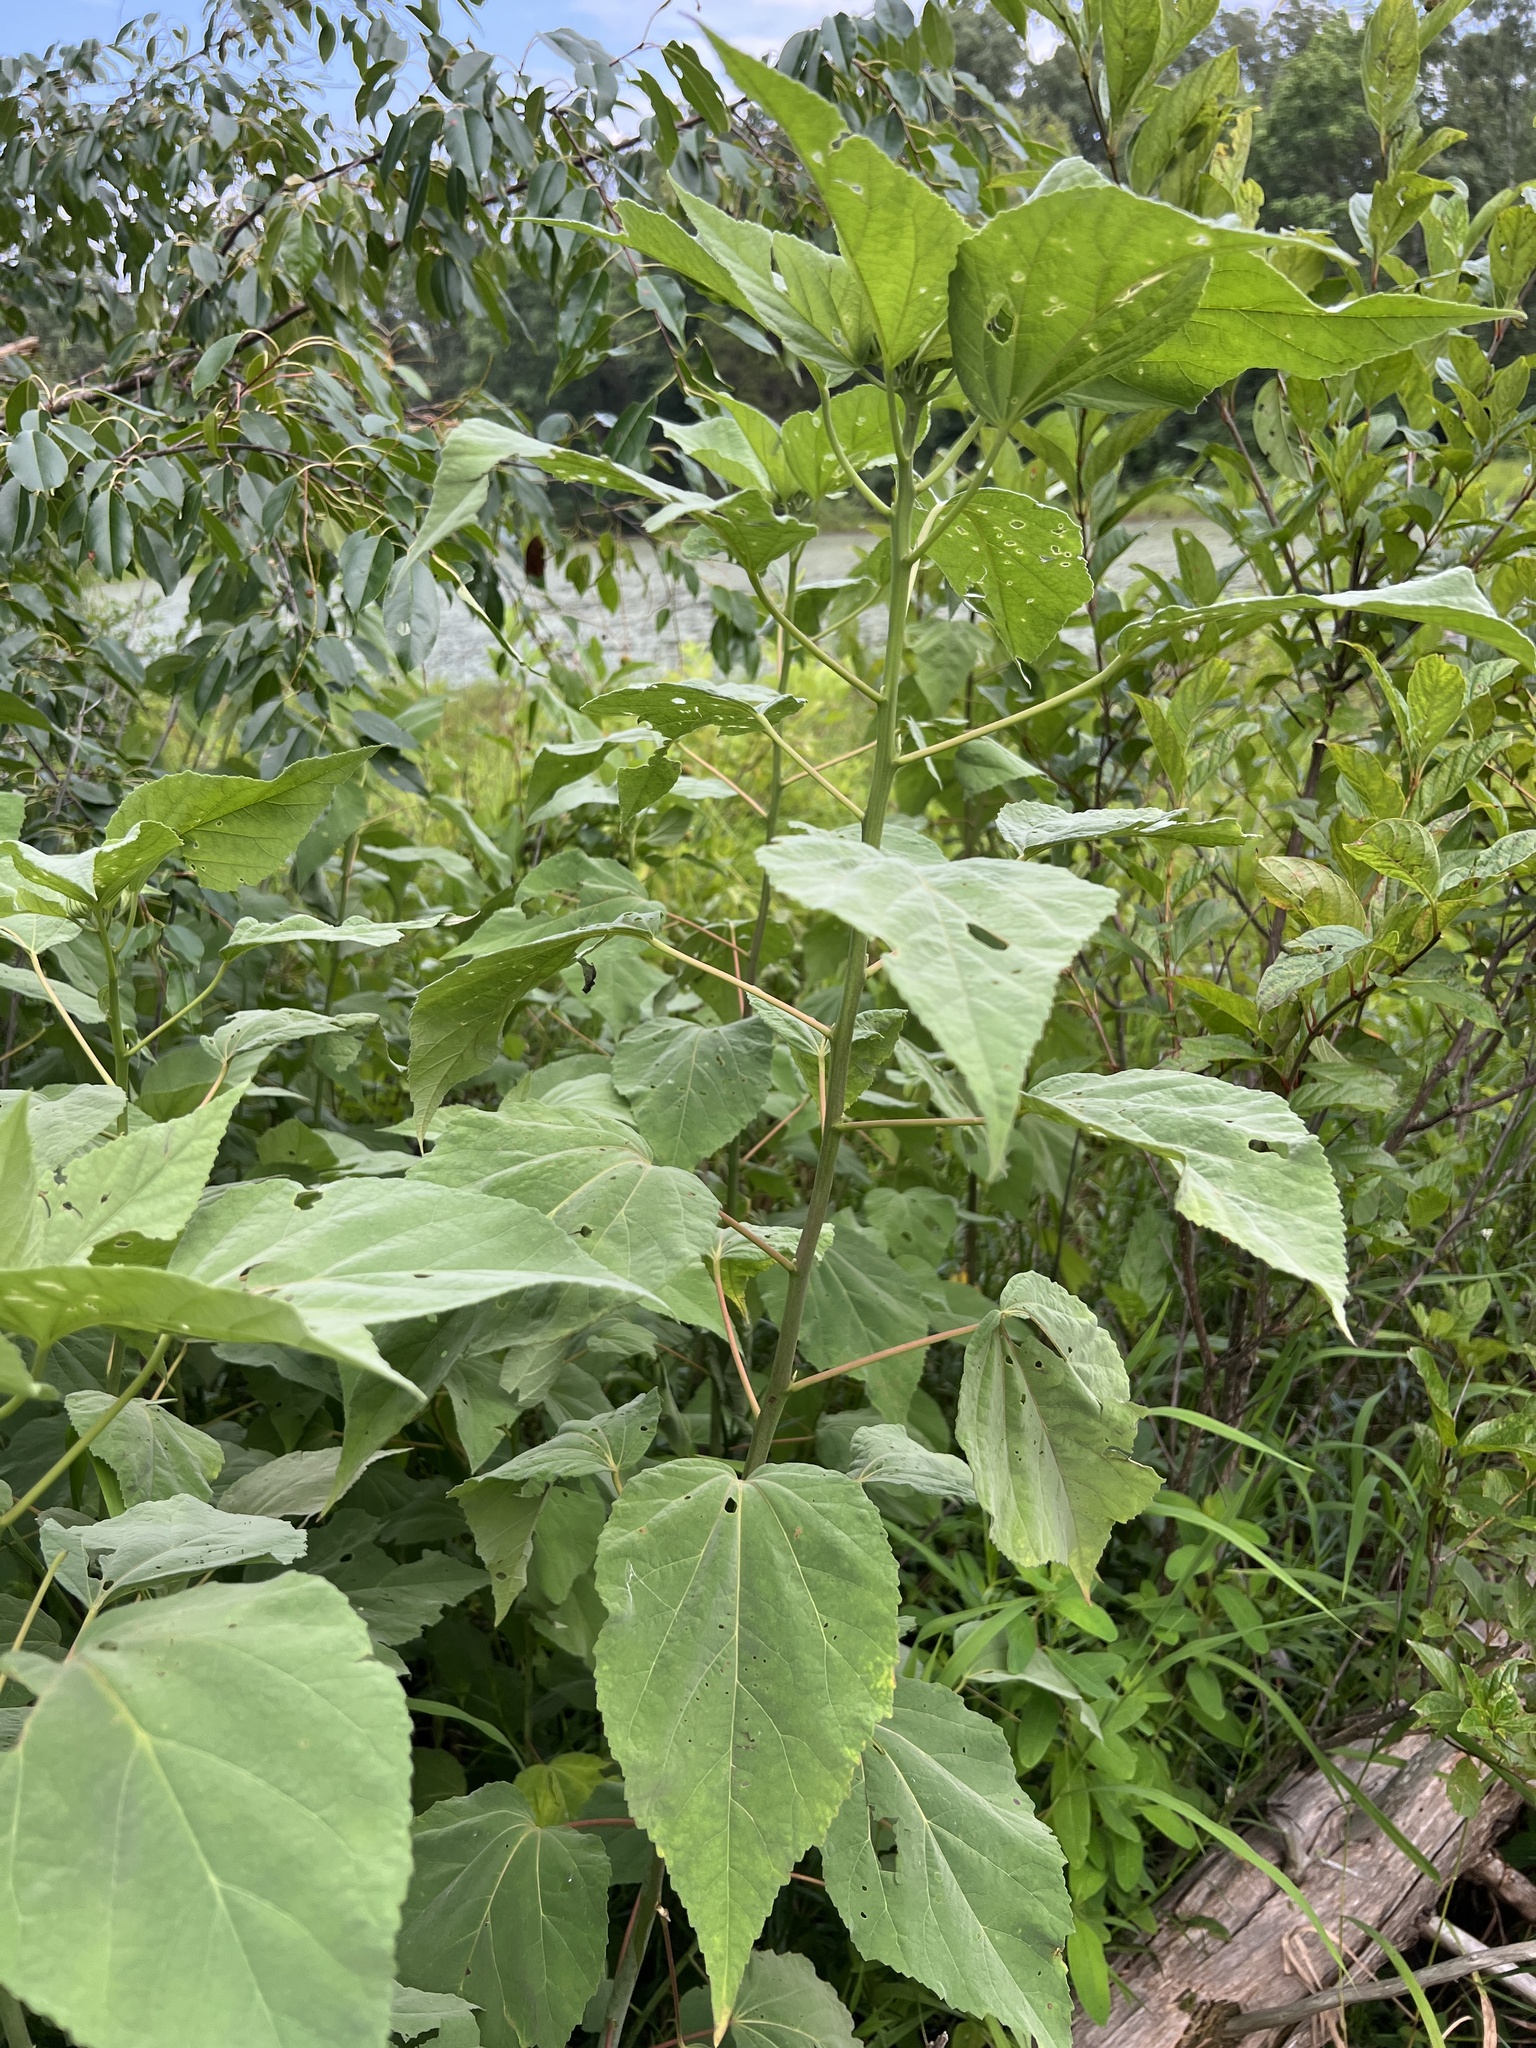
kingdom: Plantae
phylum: Tracheophyta
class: Magnoliopsida
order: Malvales
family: Malvaceae
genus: Hibiscus
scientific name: Hibiscus moscheutos
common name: Common rose-mallow
